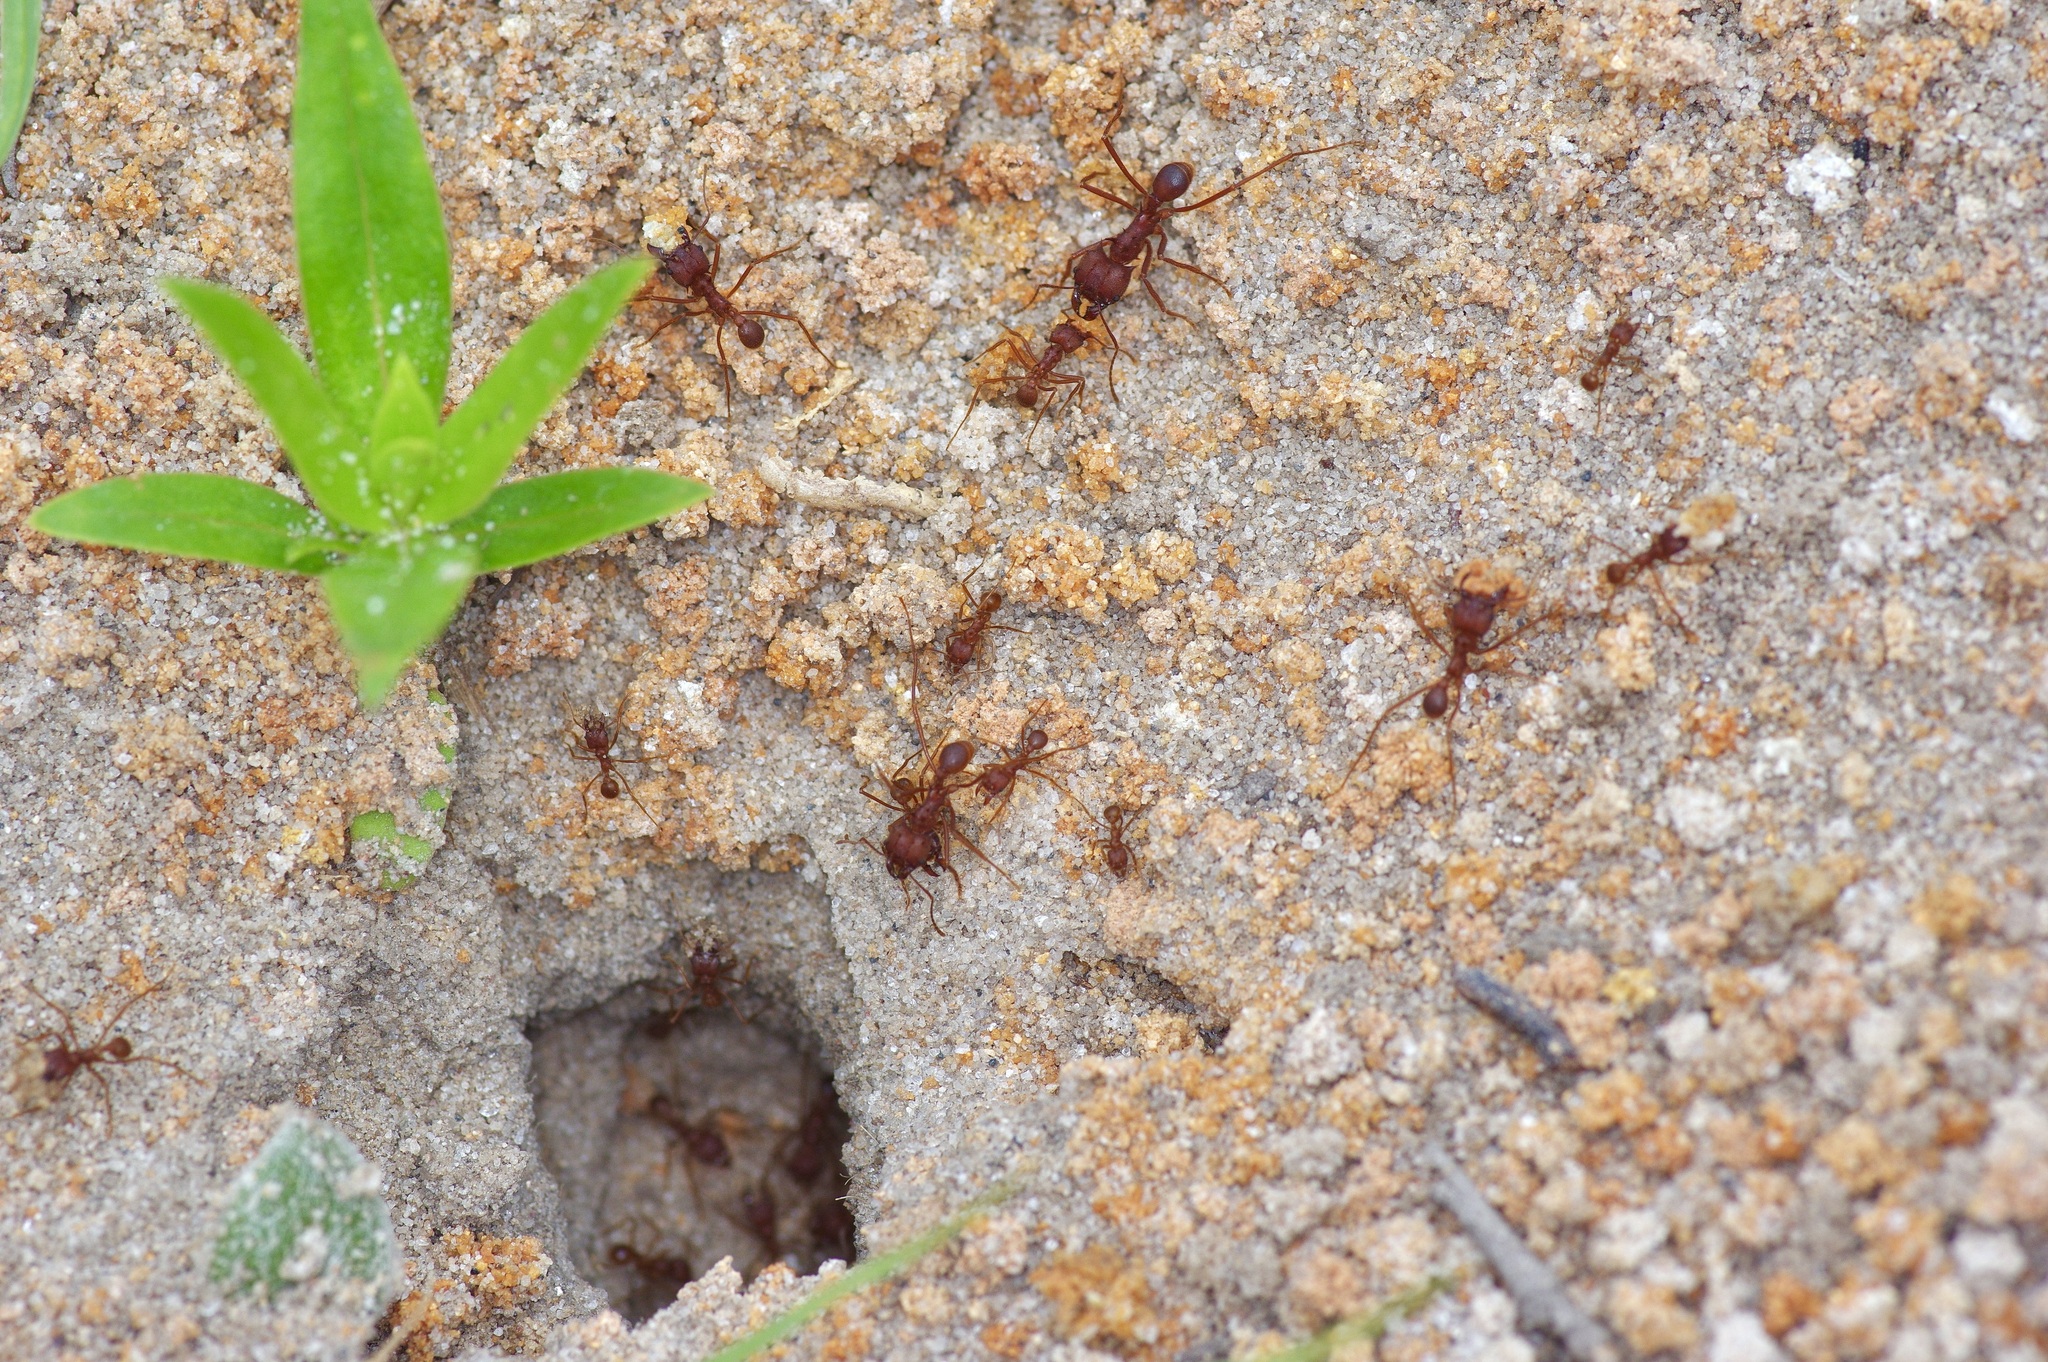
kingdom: Animalia
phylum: Arthropoda
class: Insecta
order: Hymenoptera
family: Formicidae
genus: Atta
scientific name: Atta texana
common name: Texas leafcutting ant
